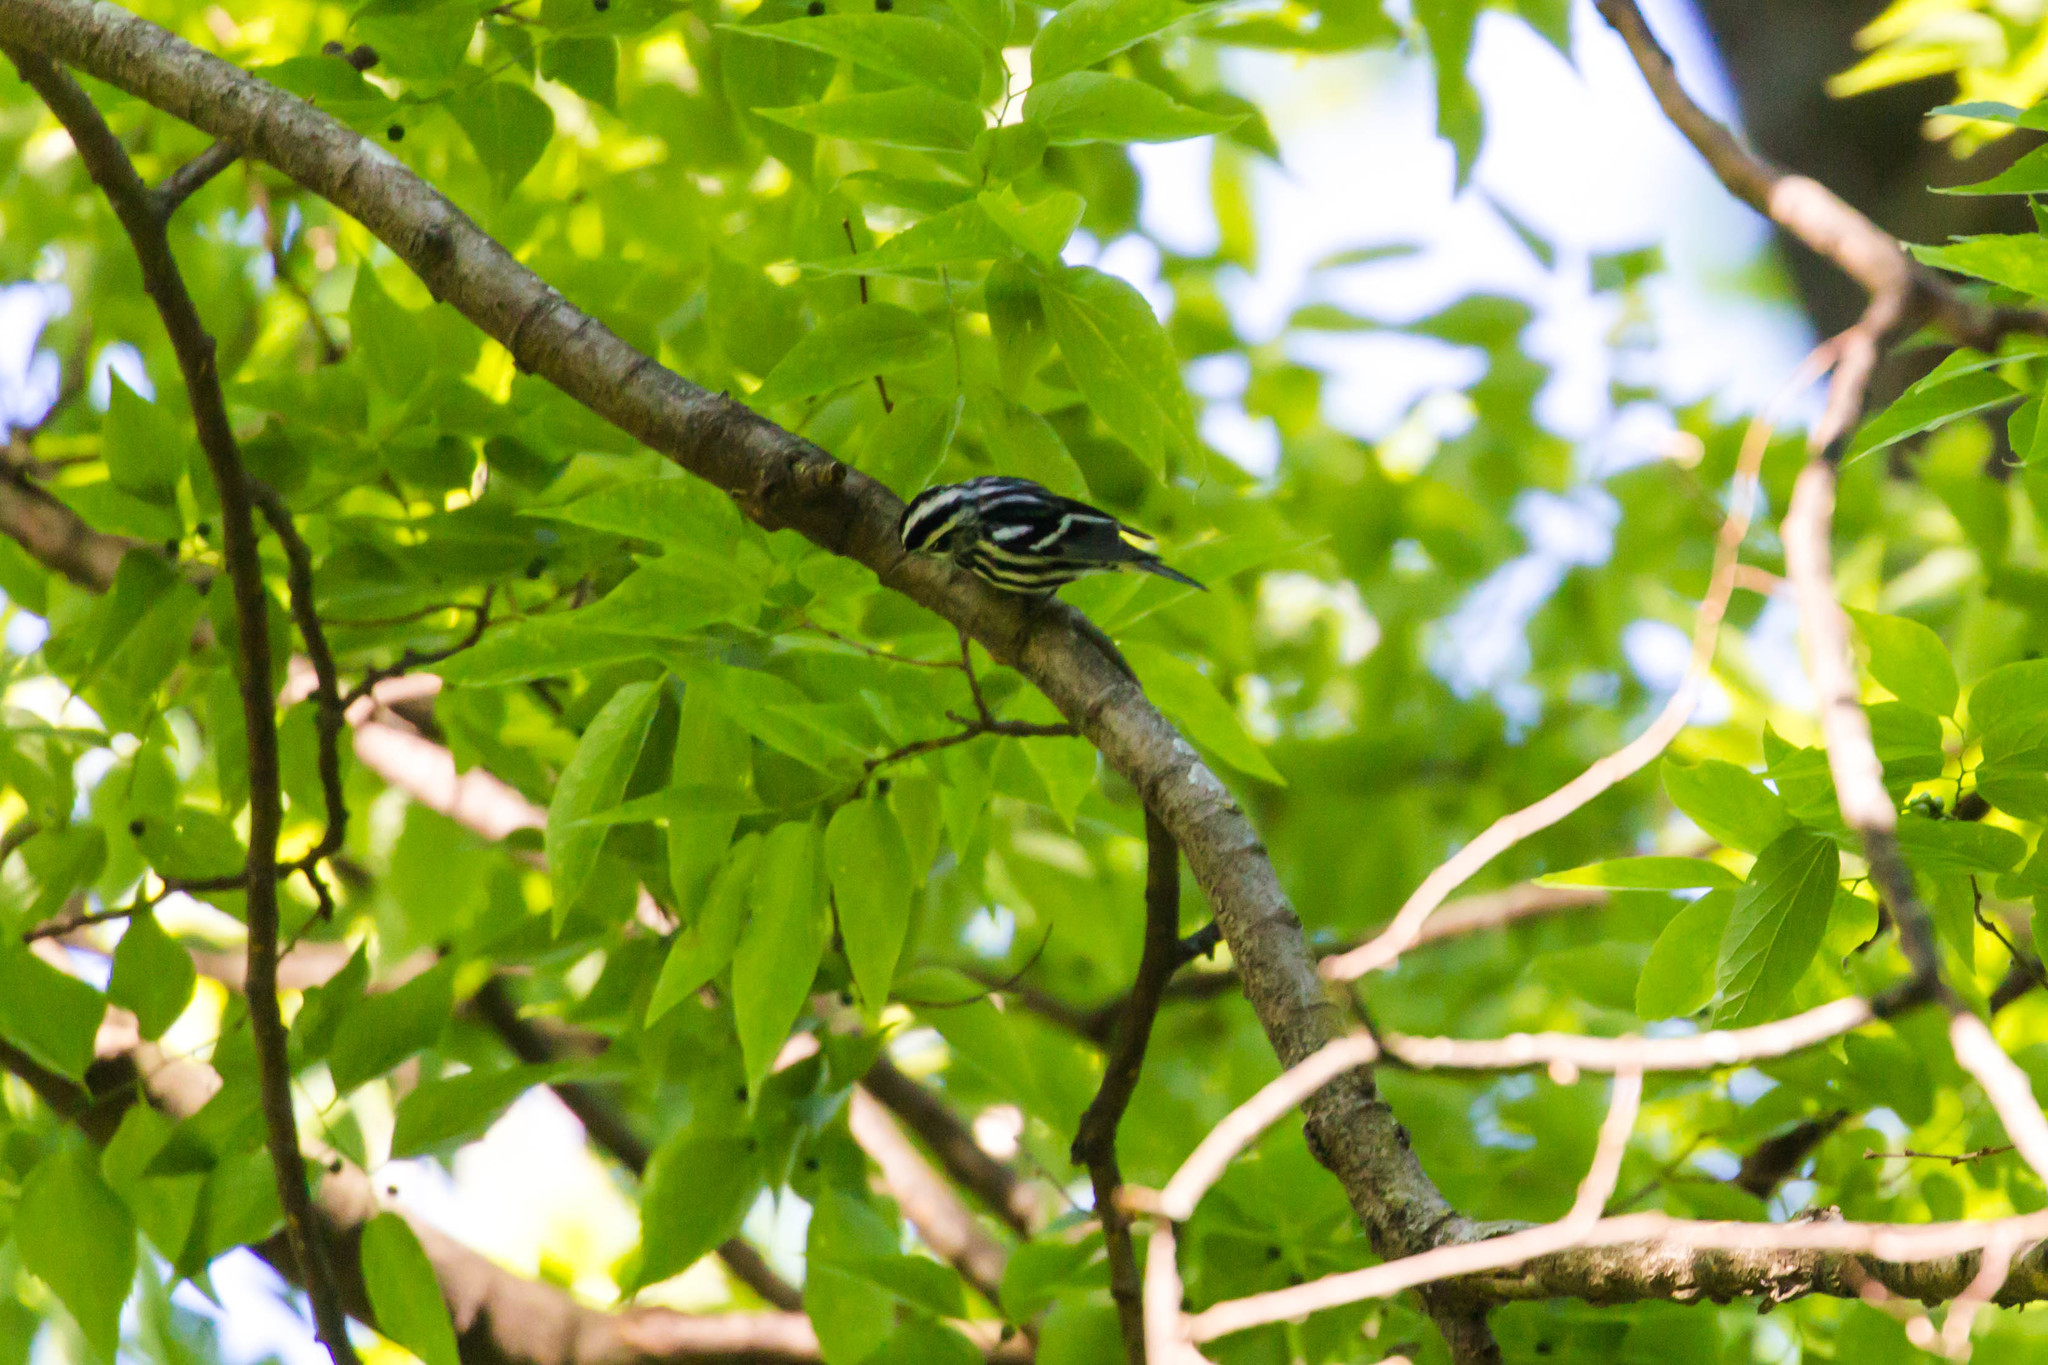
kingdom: Animalia
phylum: Chordata
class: Aves
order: Passeriformes
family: Parulidae
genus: Mniotilta
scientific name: Mniotilta varia
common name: Black-and-white warbler
